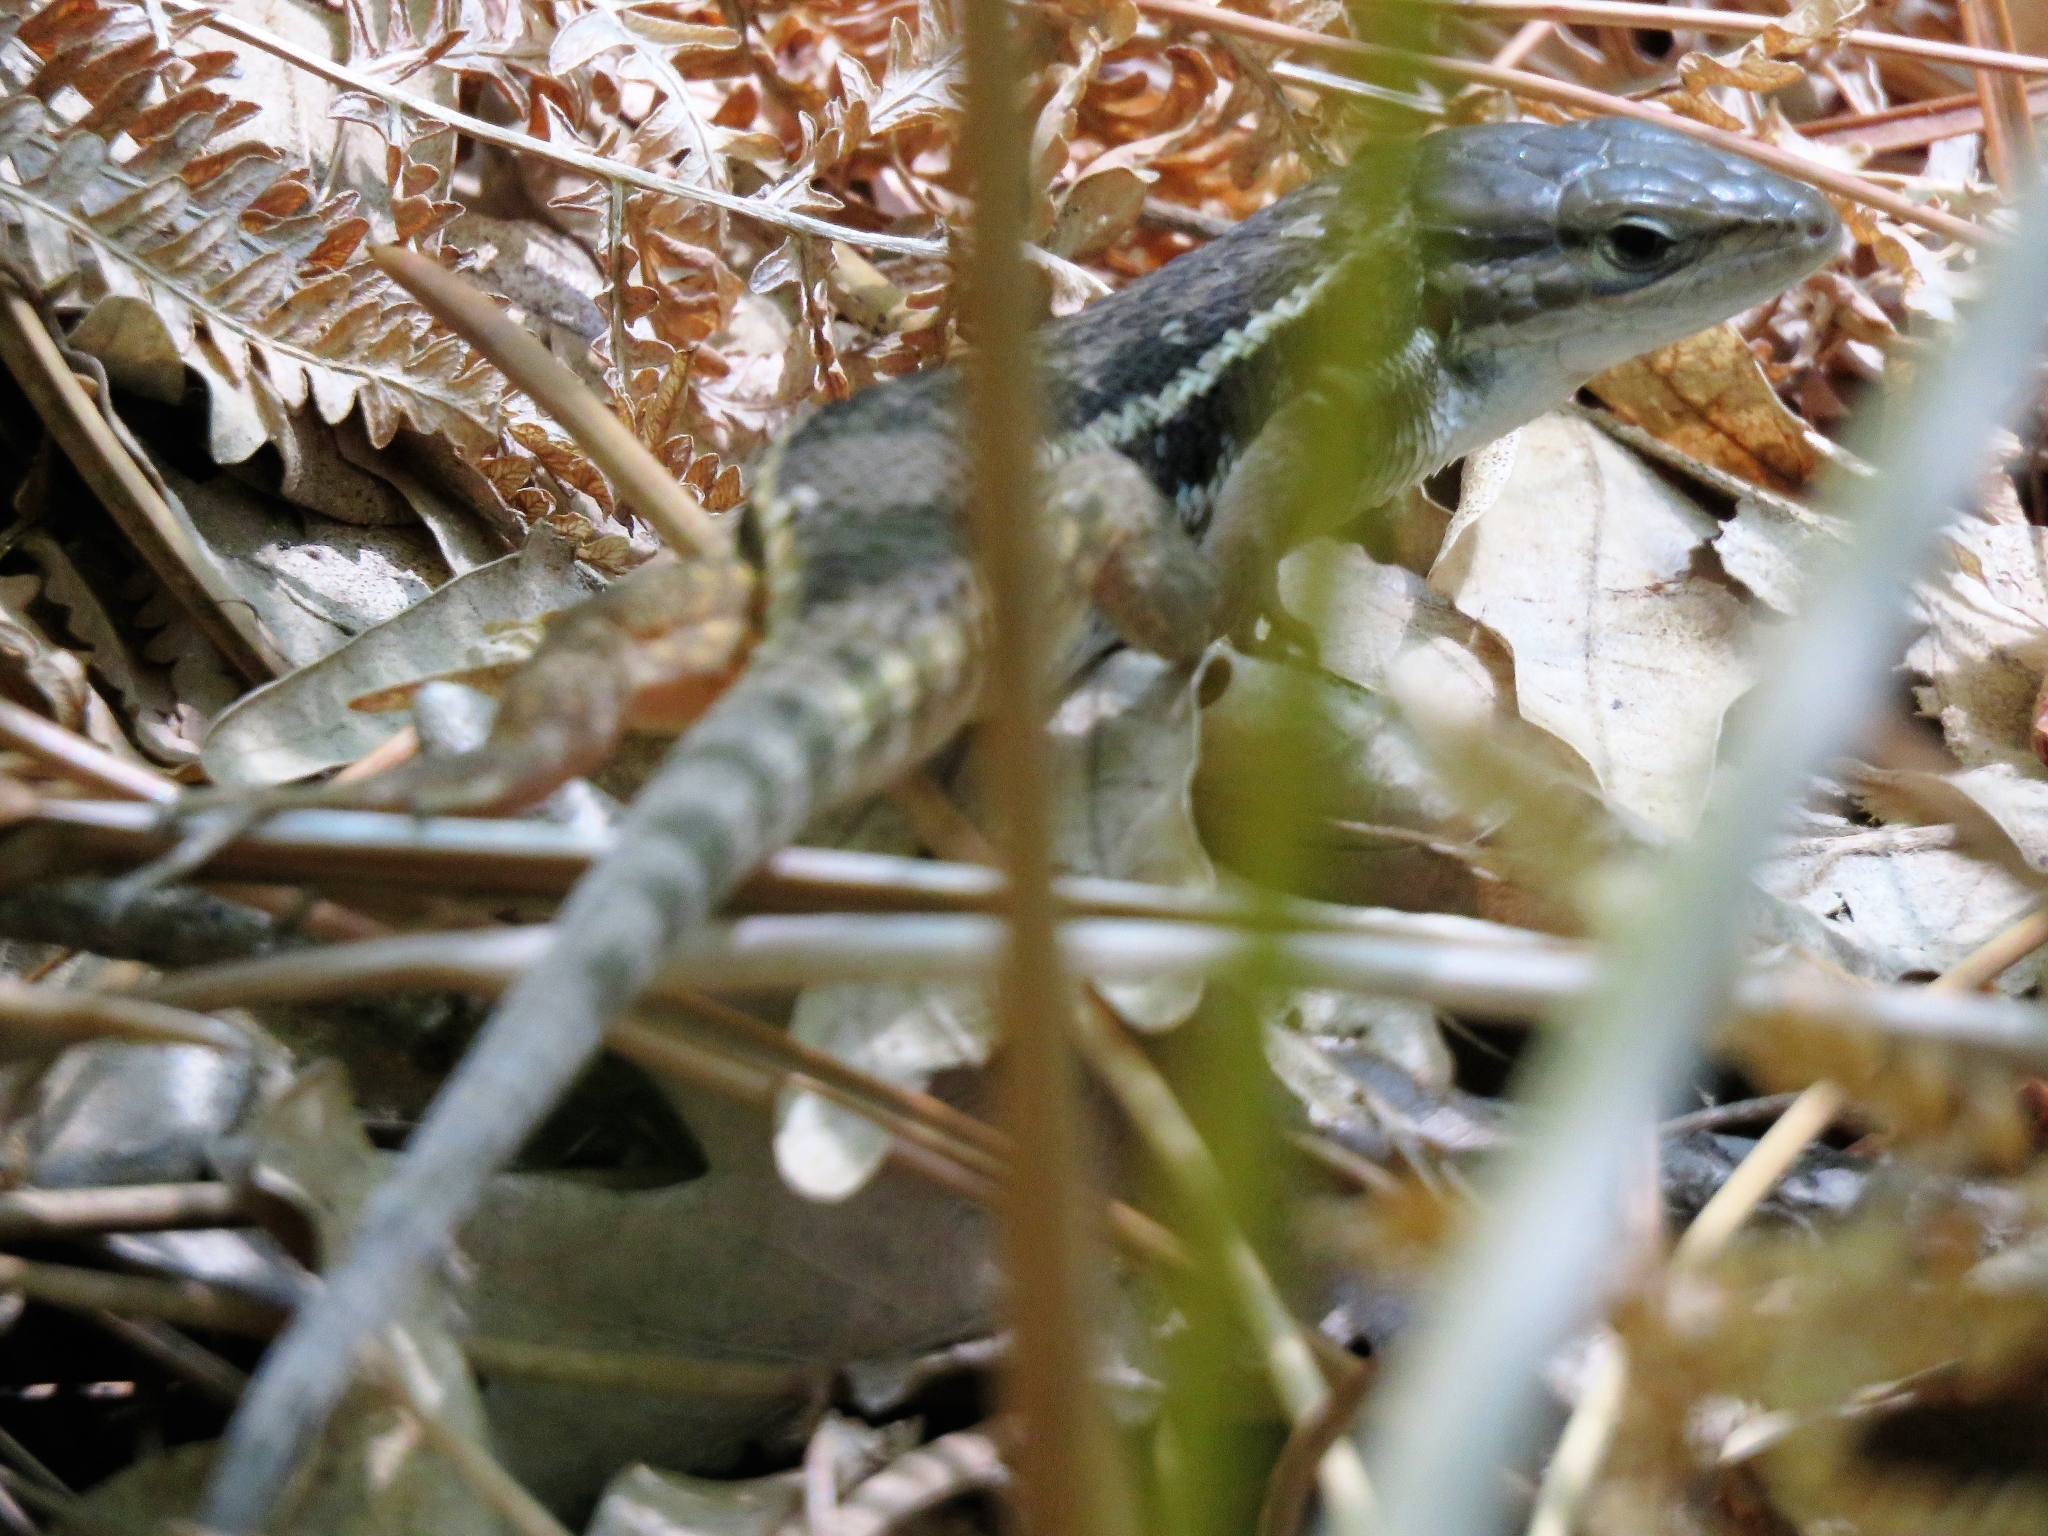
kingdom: Animalia
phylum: Chordata
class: Squamata
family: Lacertidae
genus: Psammodromus
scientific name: Psammodromus algirus
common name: Algerian psammodromus
